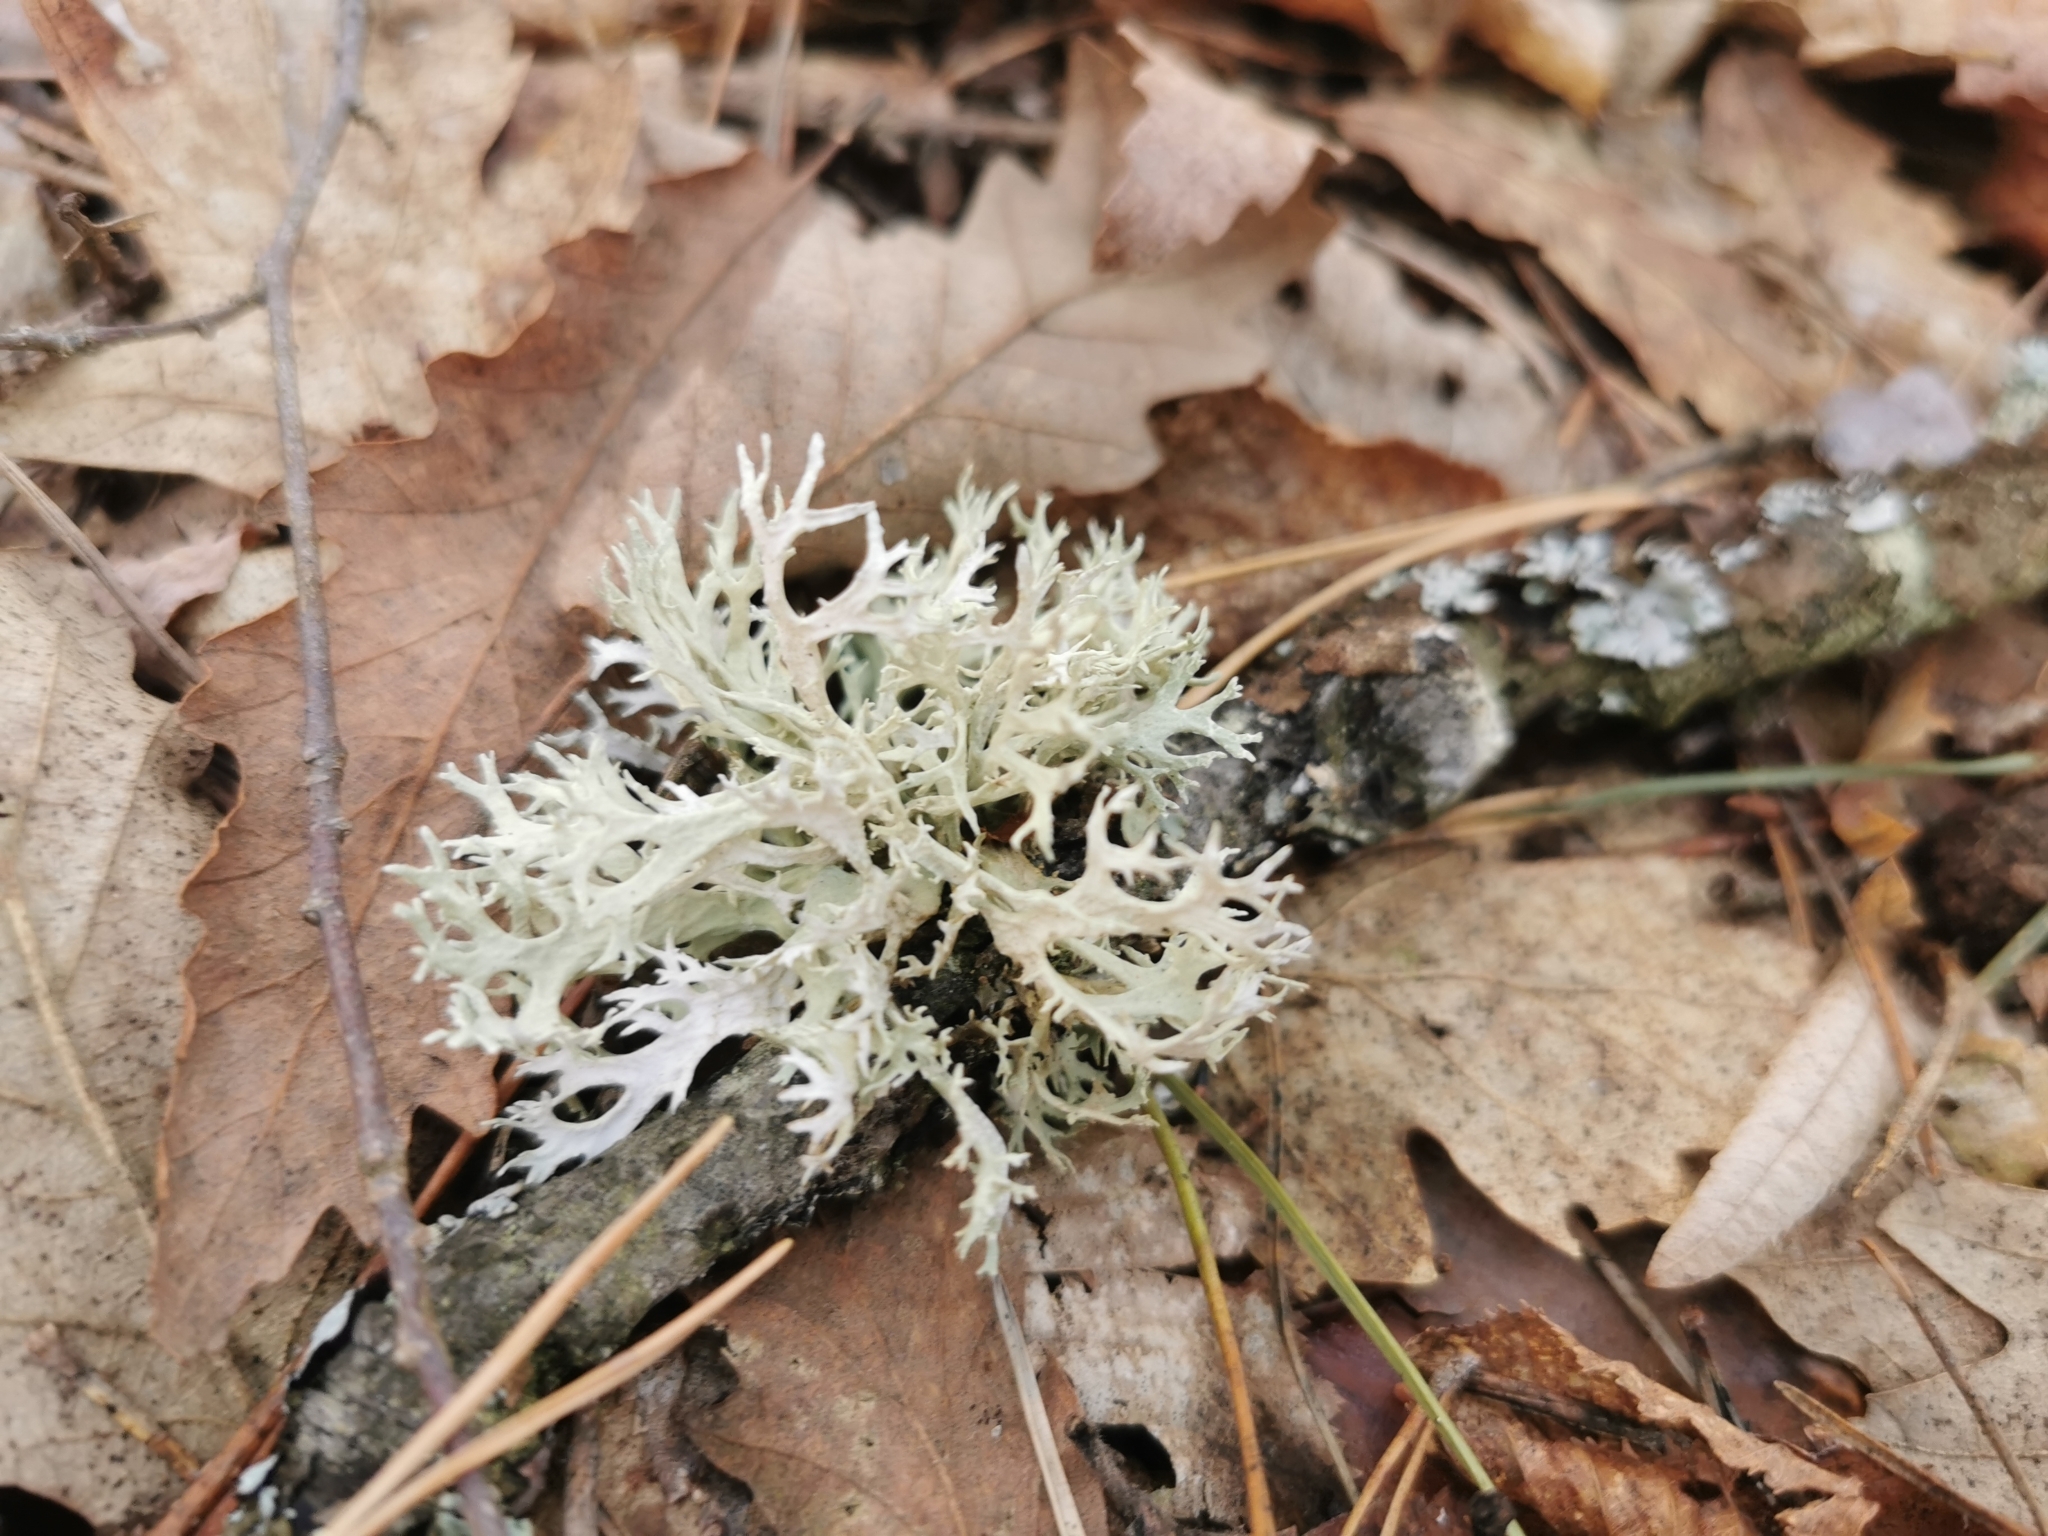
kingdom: Fungi
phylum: Ascomycota
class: Lecanoromycetes
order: Lecanorales
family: Parmeliaceae
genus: Evernia
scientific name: Evernia prunastri
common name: Oak moss
